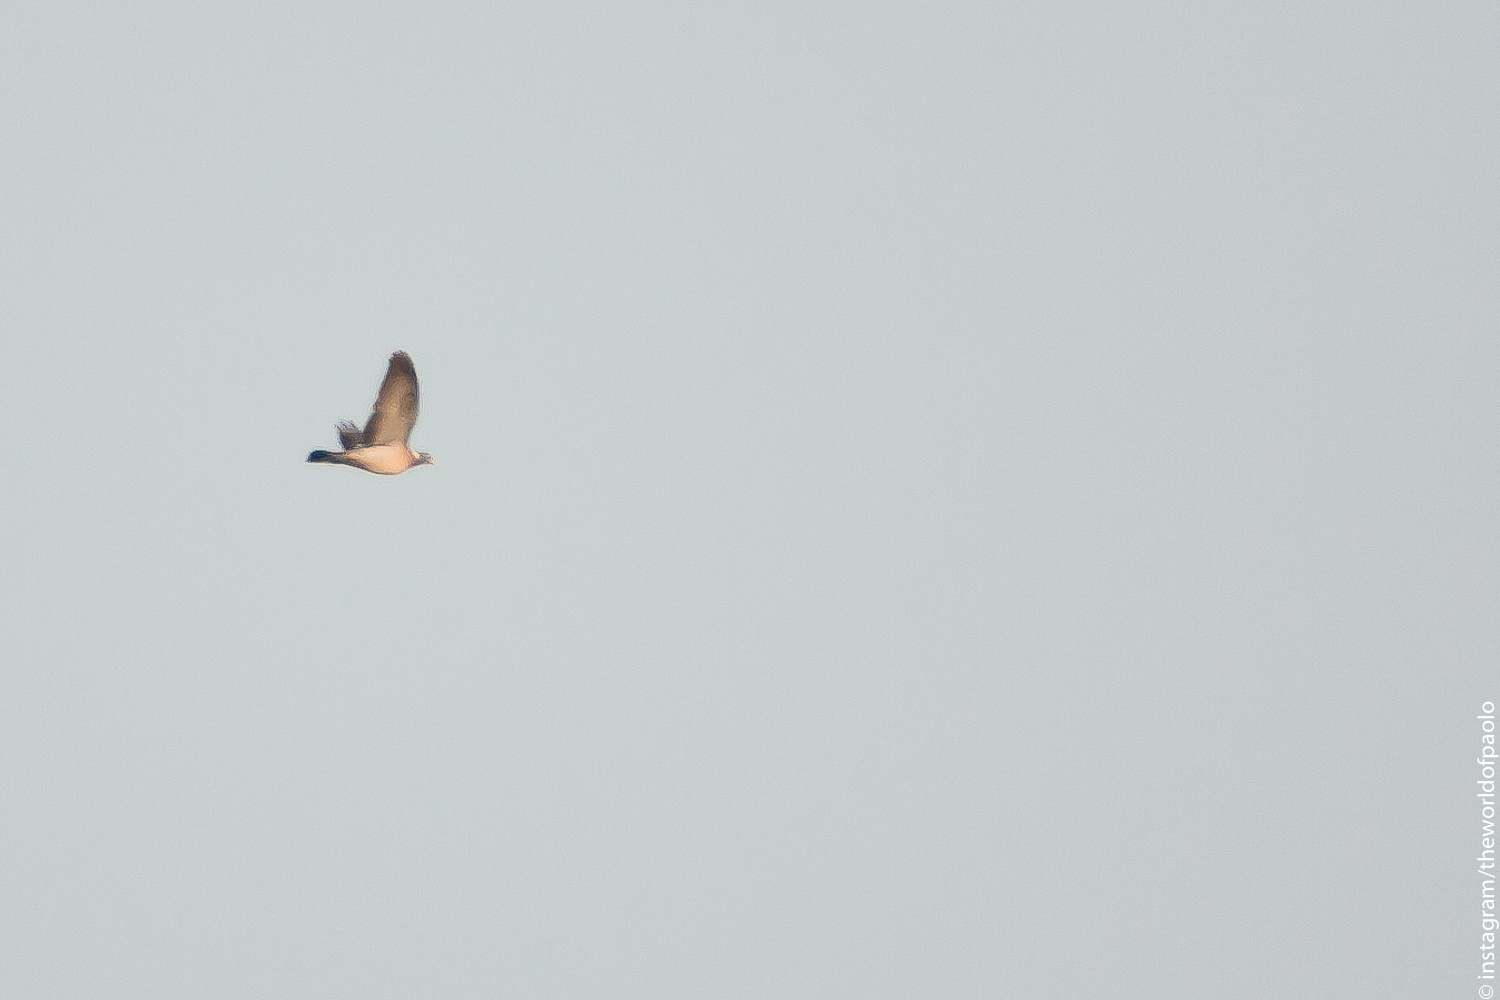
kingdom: Animalia
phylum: Chordata
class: Aves
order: Columbiformes
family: Columbidae
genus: Columba
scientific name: Columba palumbus
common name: Common wood pigeon
